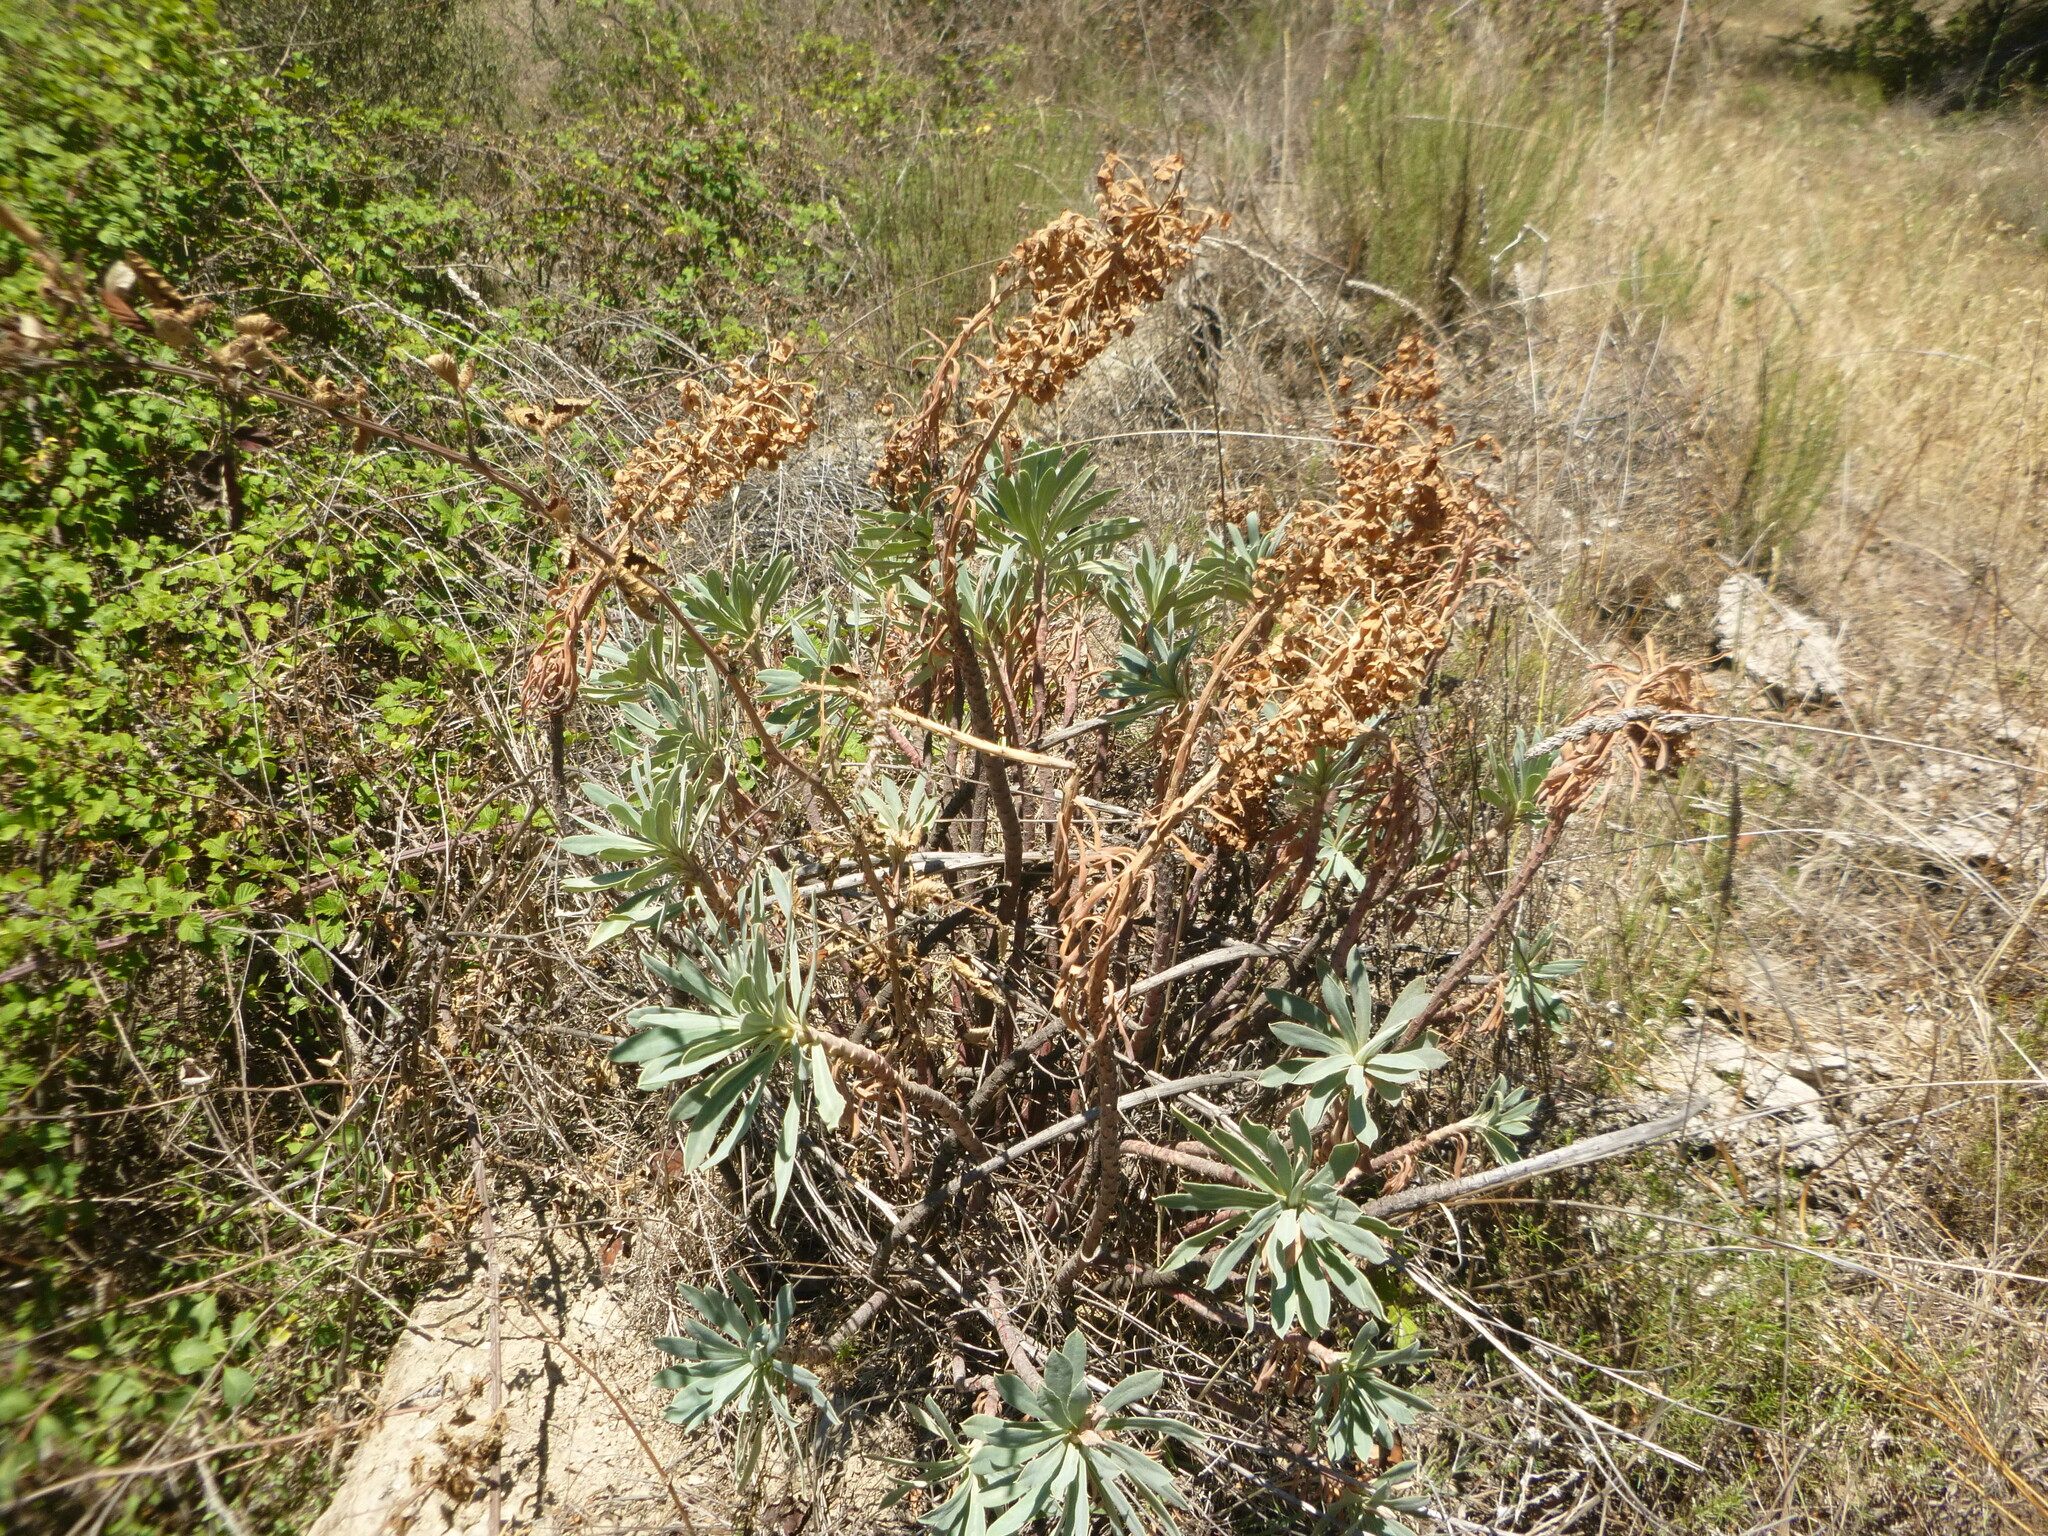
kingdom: Plantae
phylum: Tracheophyta
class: Magnoliopsida
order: Malpighiales
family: Euphorbiaceae
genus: Euphorbia
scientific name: Euphorbia characias
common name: Mediterranean spurge
